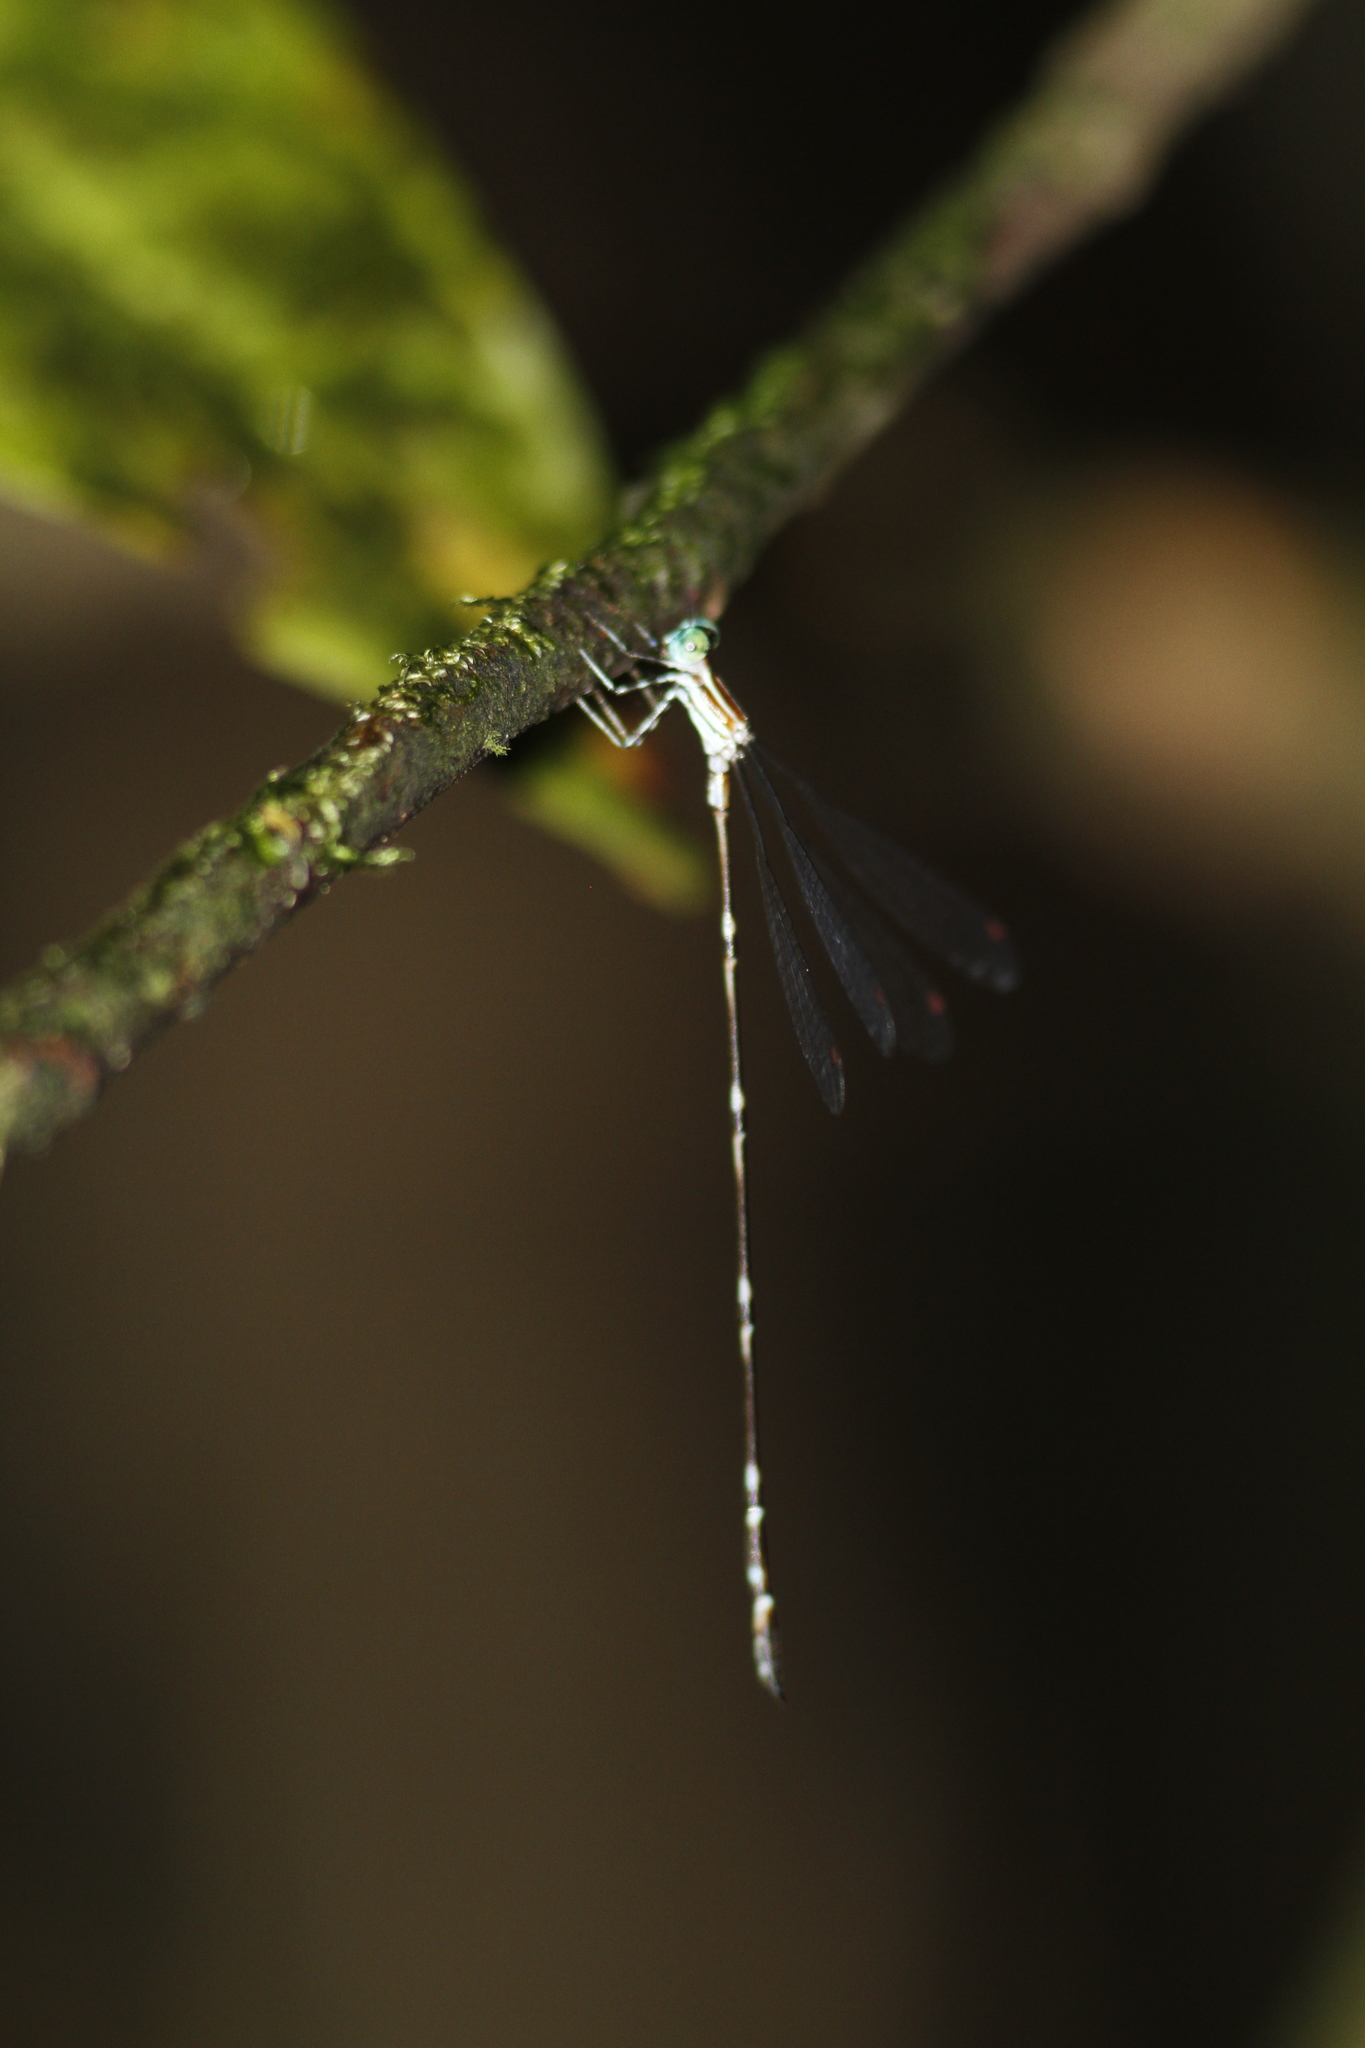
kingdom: Animalia
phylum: Arthropoda
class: Insecta
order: Odonata
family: Perilestidae
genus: Perilestes
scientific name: Perilestes gracillimus
